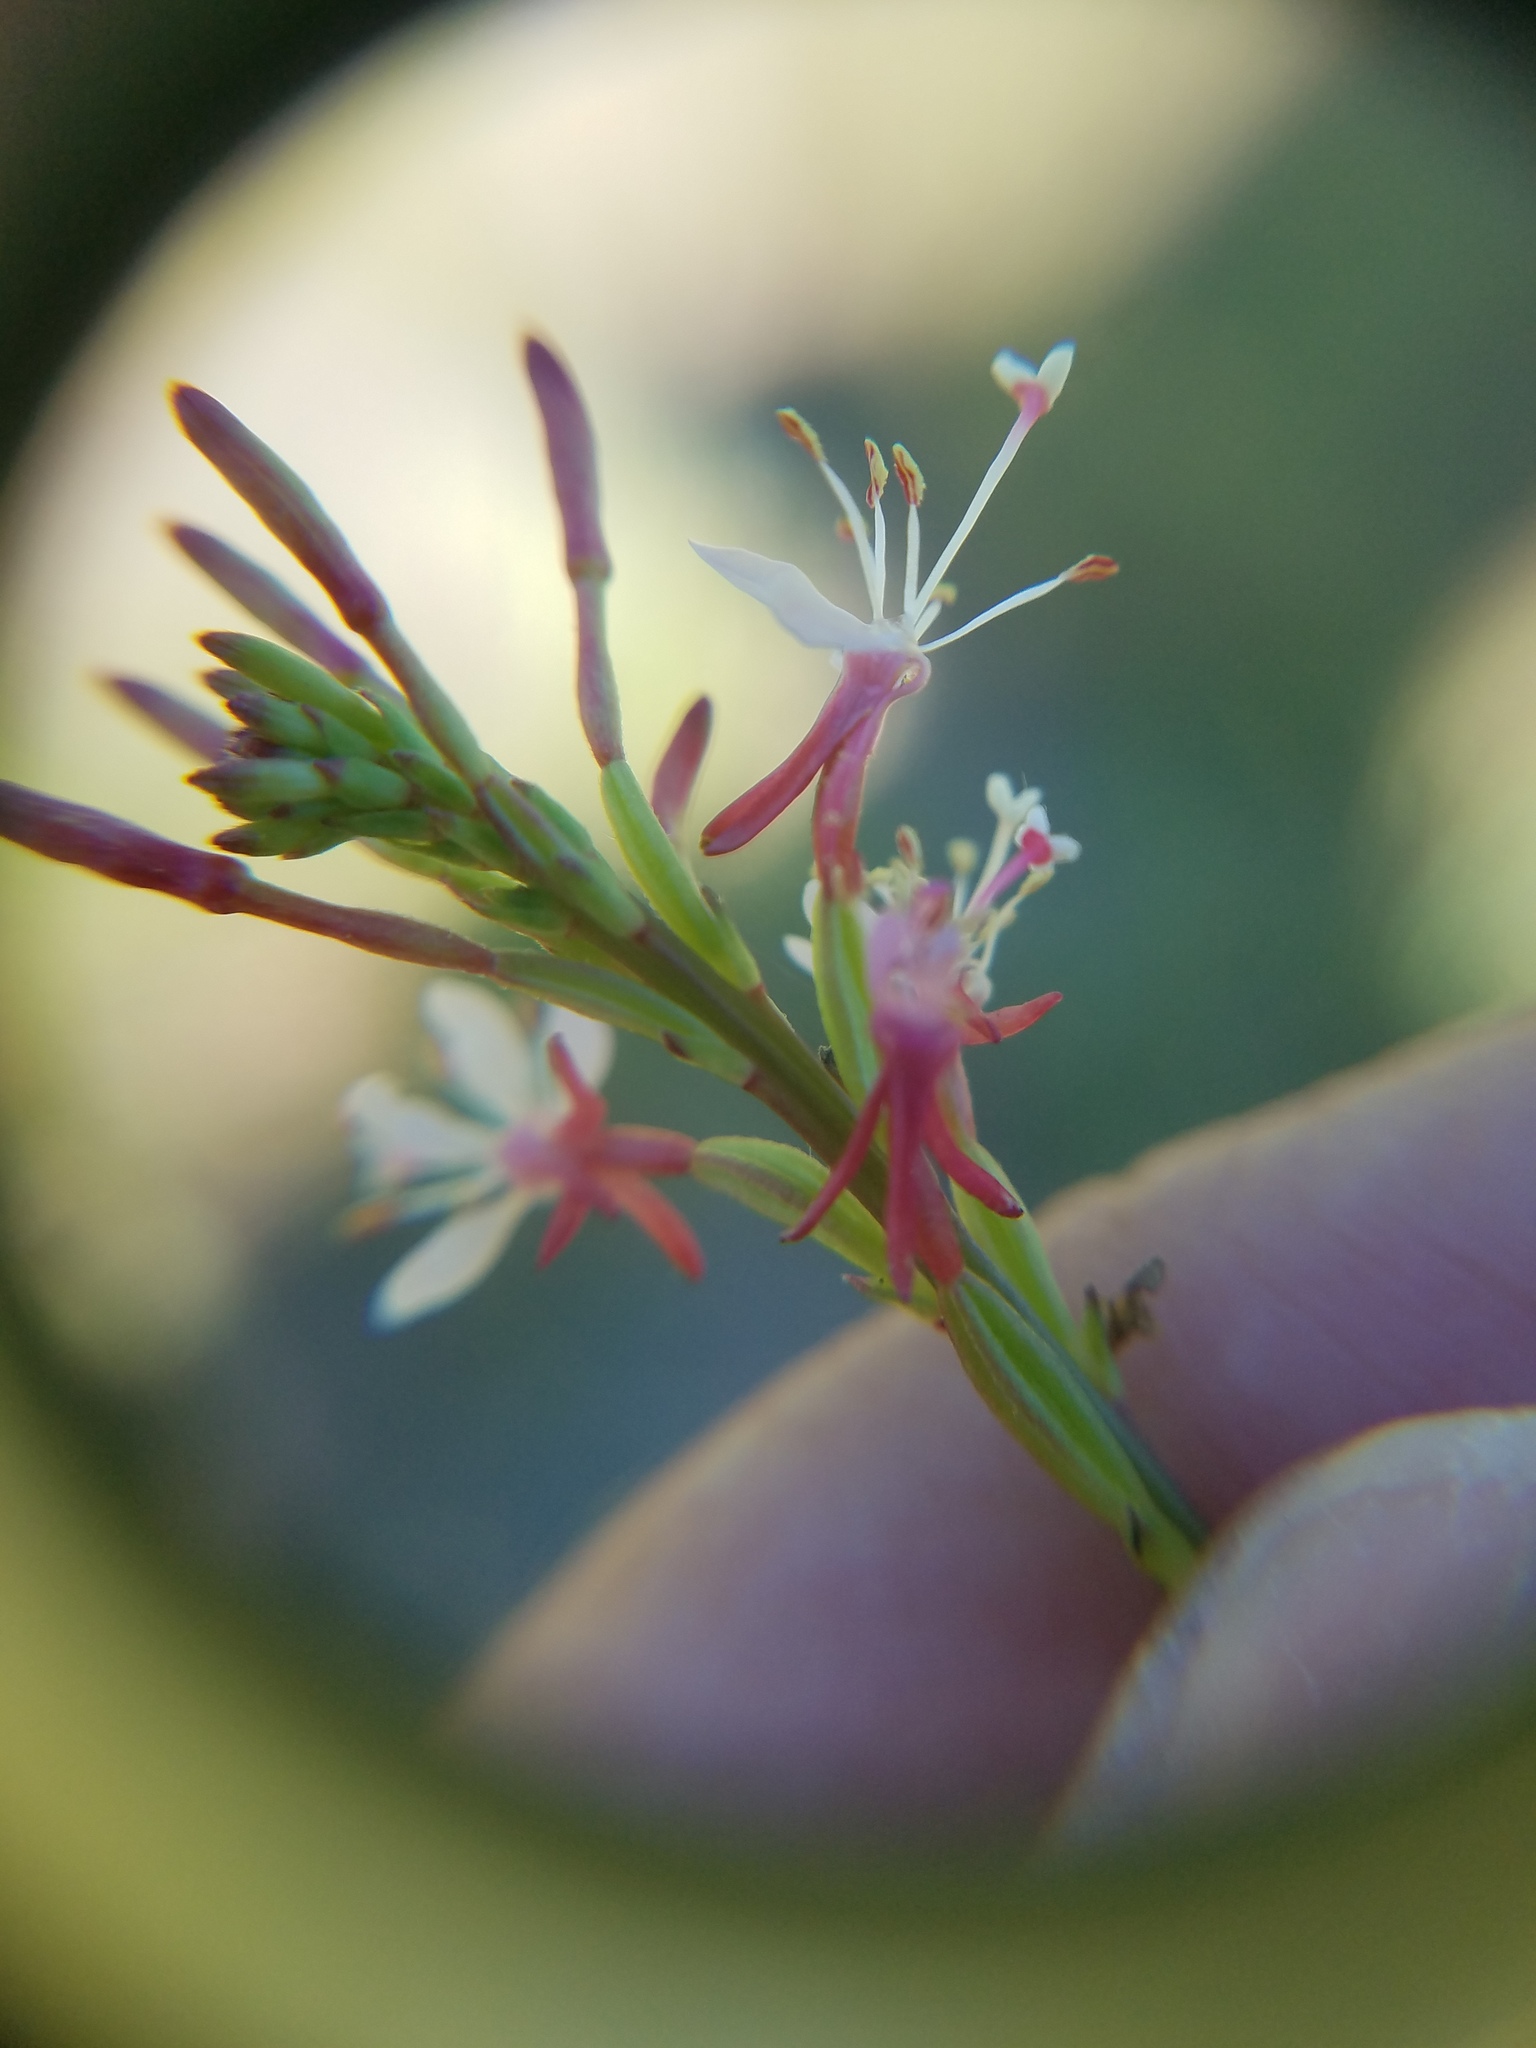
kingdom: Plantae
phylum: Tracheophyta
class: Magnoliopsida
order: Myrtales
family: Onagraceae
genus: Oenothera
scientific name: Oenothera simulans
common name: Southern beeblossom
